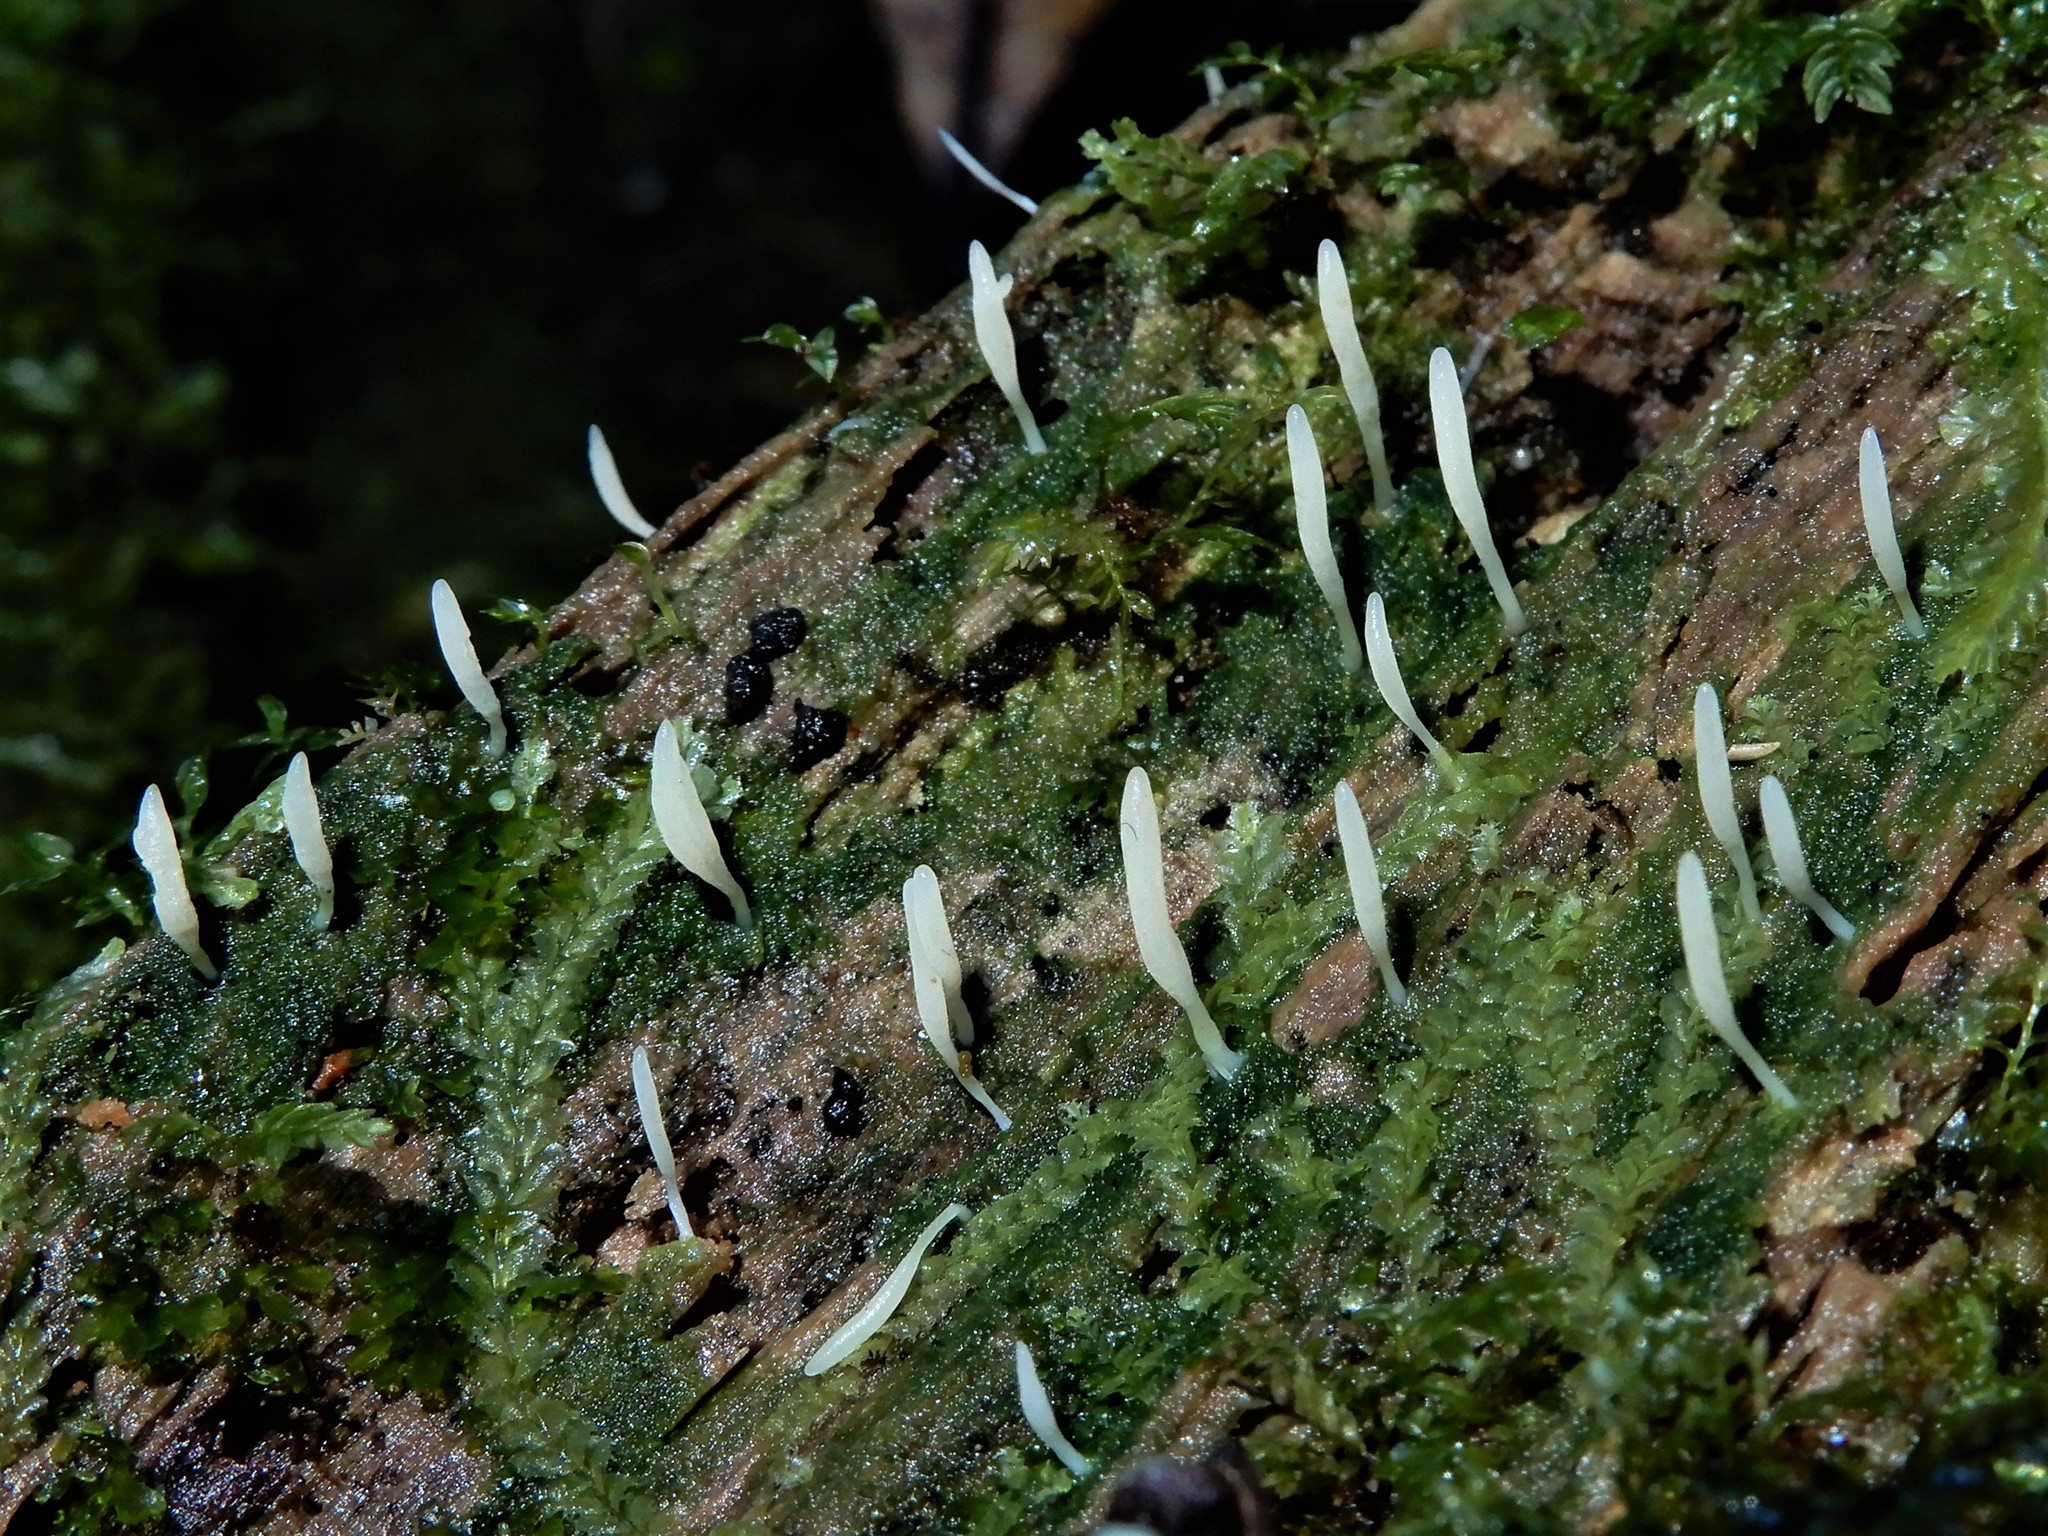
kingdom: Fungi
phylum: Basidiomycota
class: Agaricomycetes
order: Cantharellales
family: Hydnaceae
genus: Multiclavula
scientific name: Multiclavula mucida
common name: White green-algae coral
